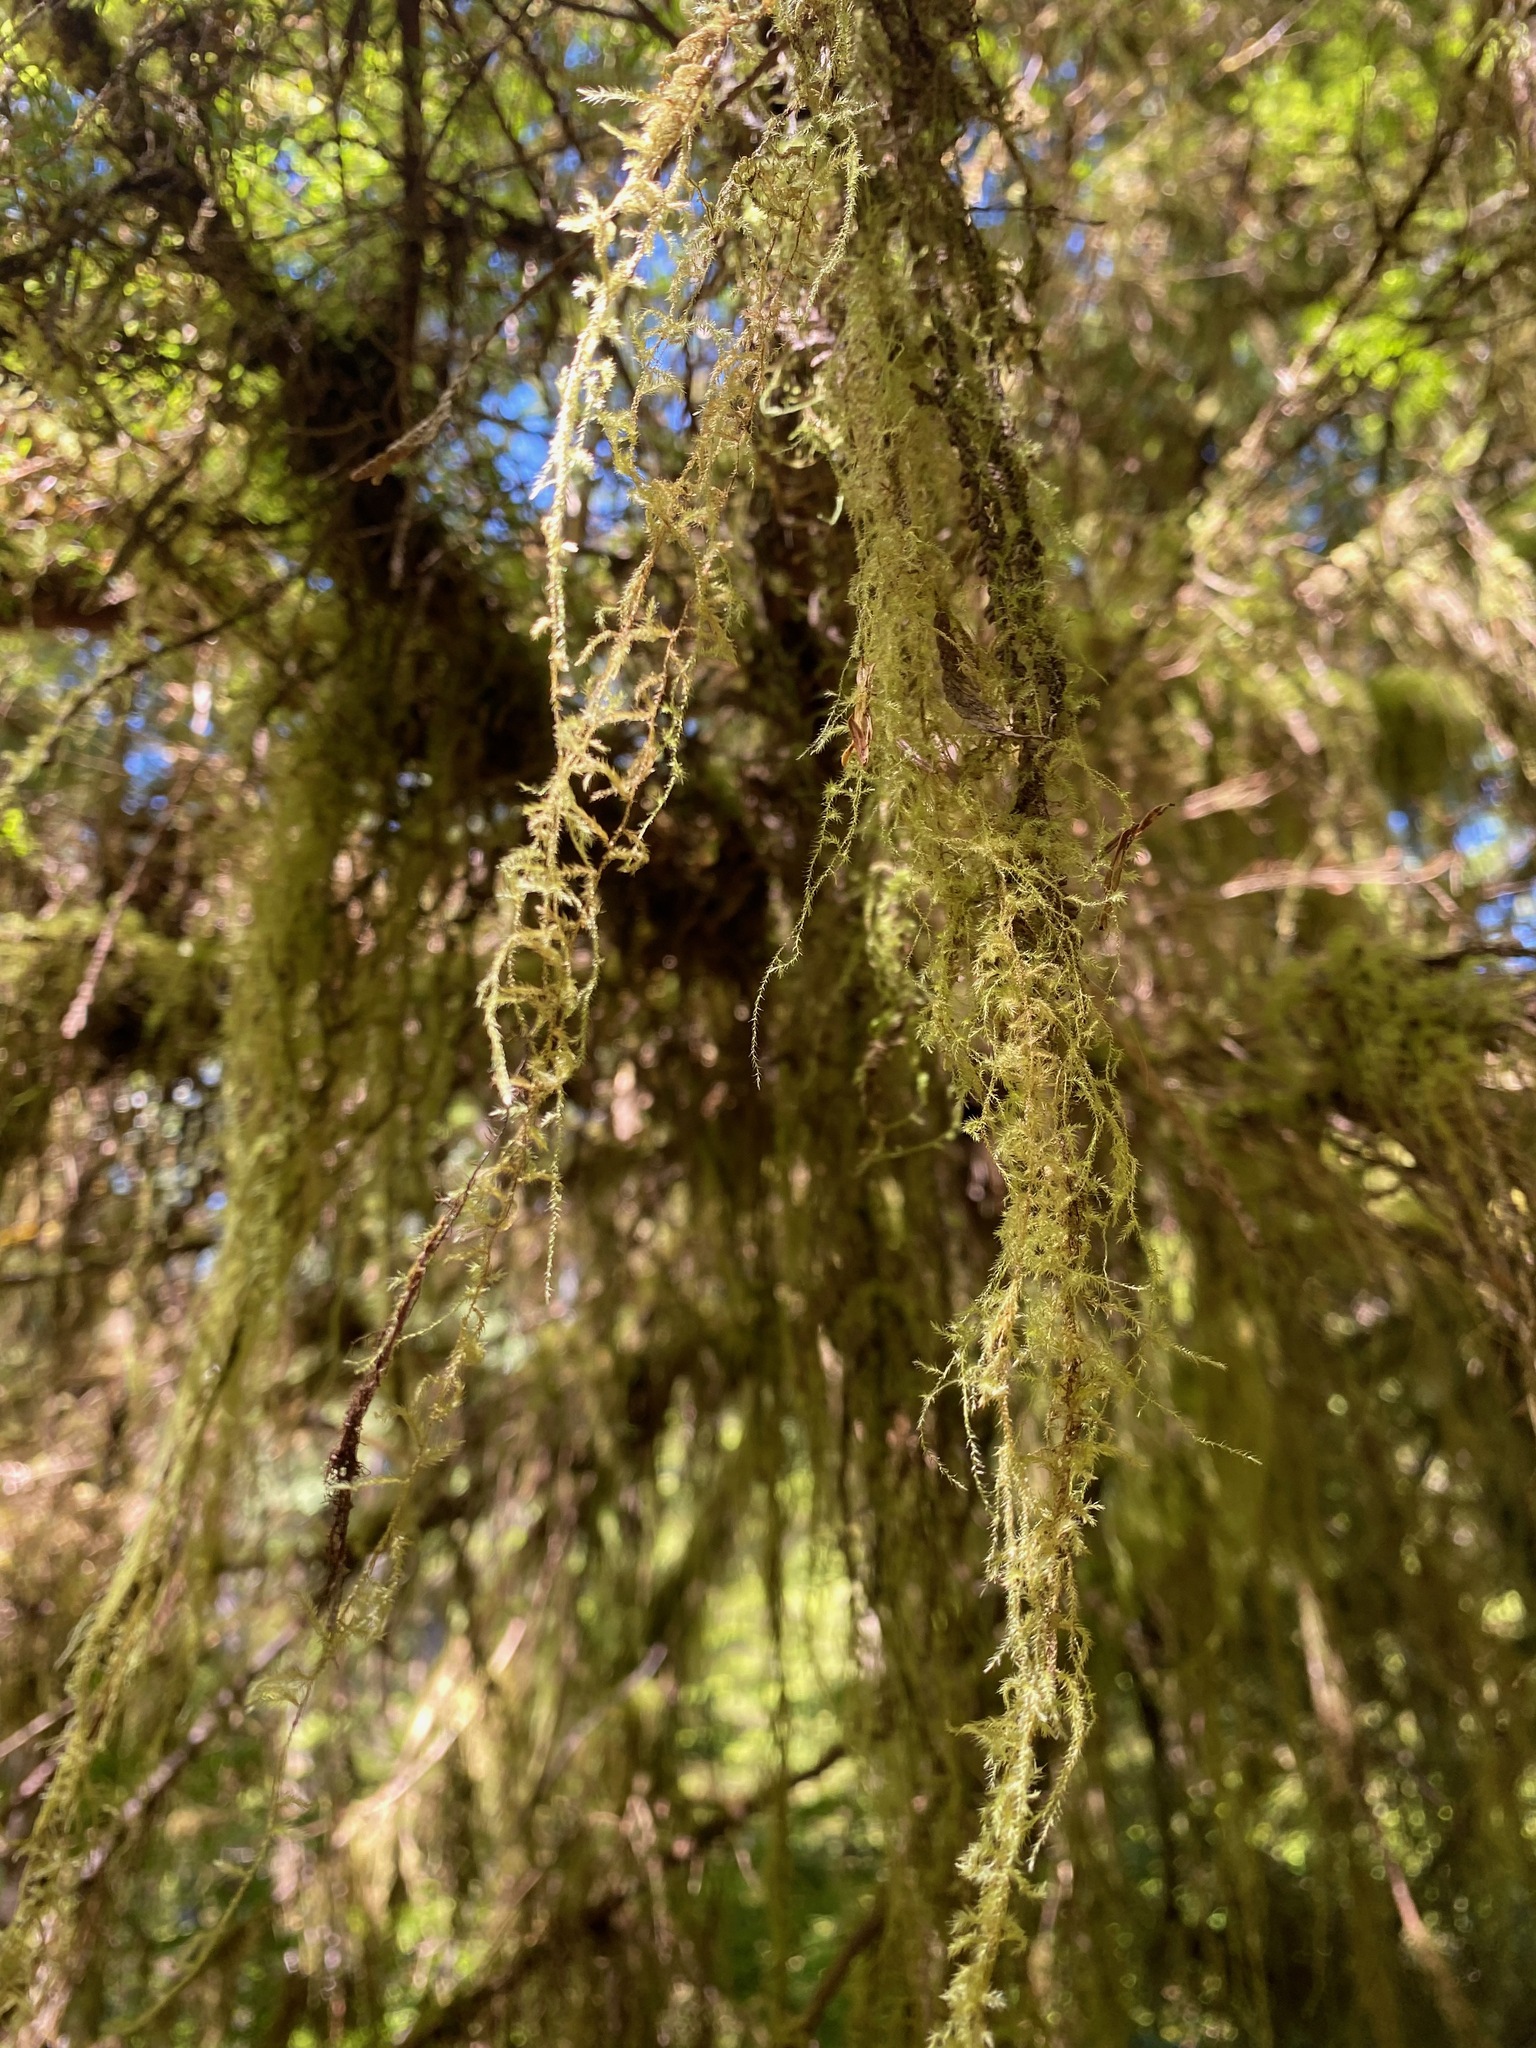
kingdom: Plantae
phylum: Bryophyta
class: Bryopsida
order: Hypnales
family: Lembophyllaceae
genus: Pseudisothecium
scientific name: Pseudisothecium stoloniferum
